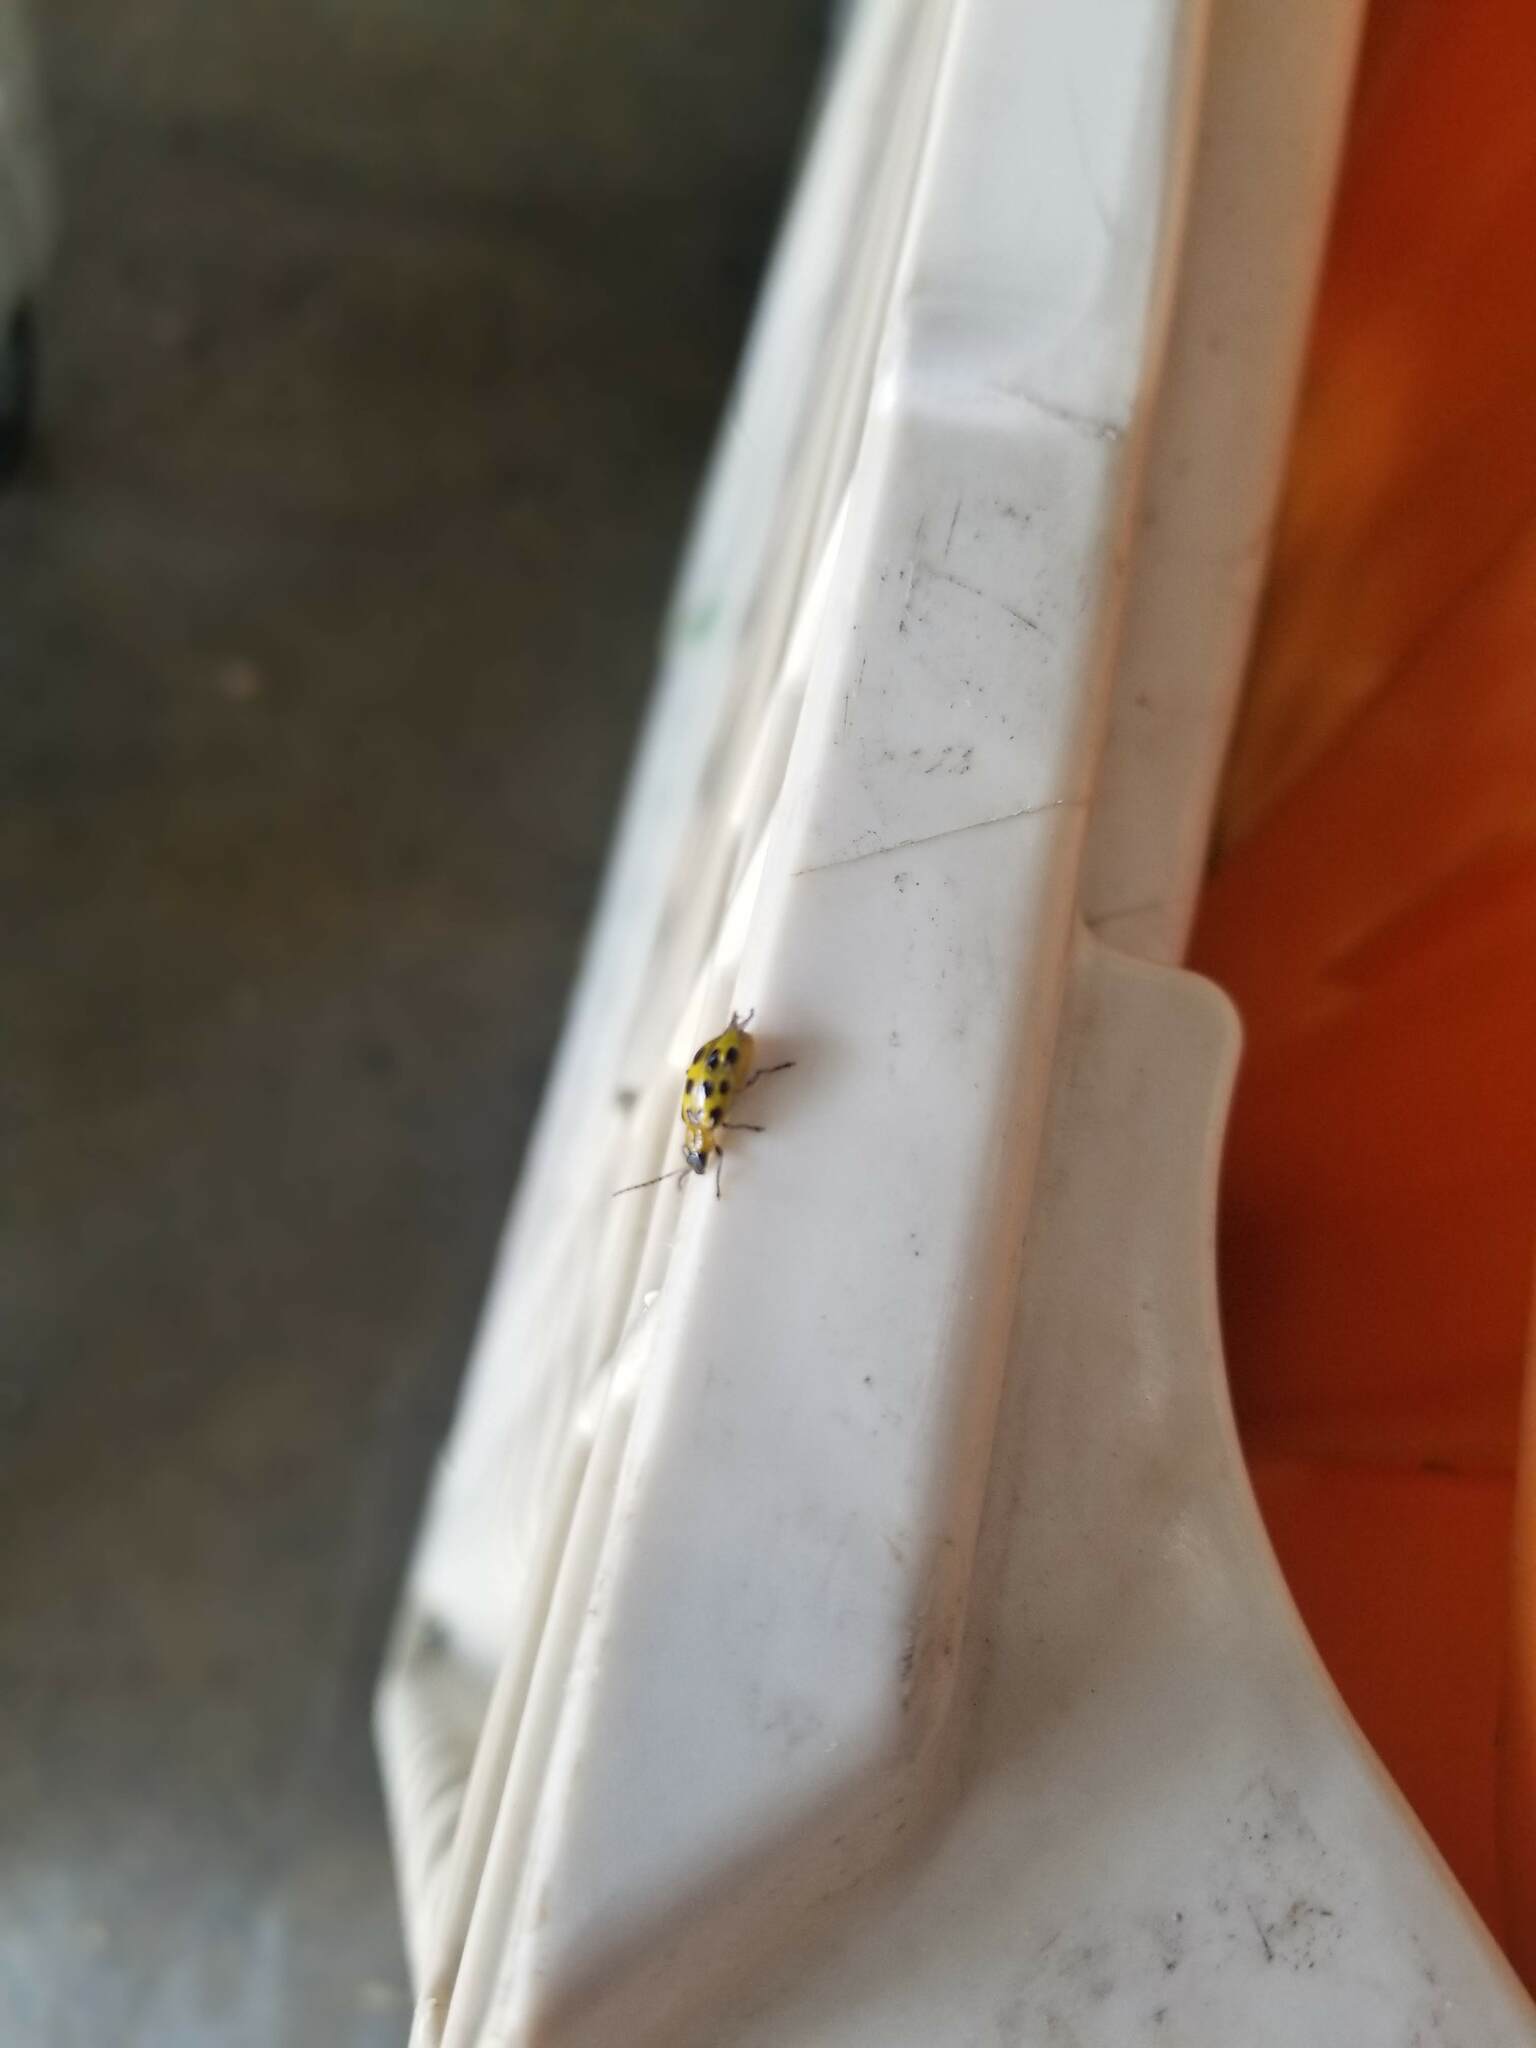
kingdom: Animalia
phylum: Arthropoda
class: Insecta
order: Coleoptera
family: Chrysomelidae
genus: Diabrotica
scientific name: Diabrotica undecimpunctata
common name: Spotted cucumber beetle
